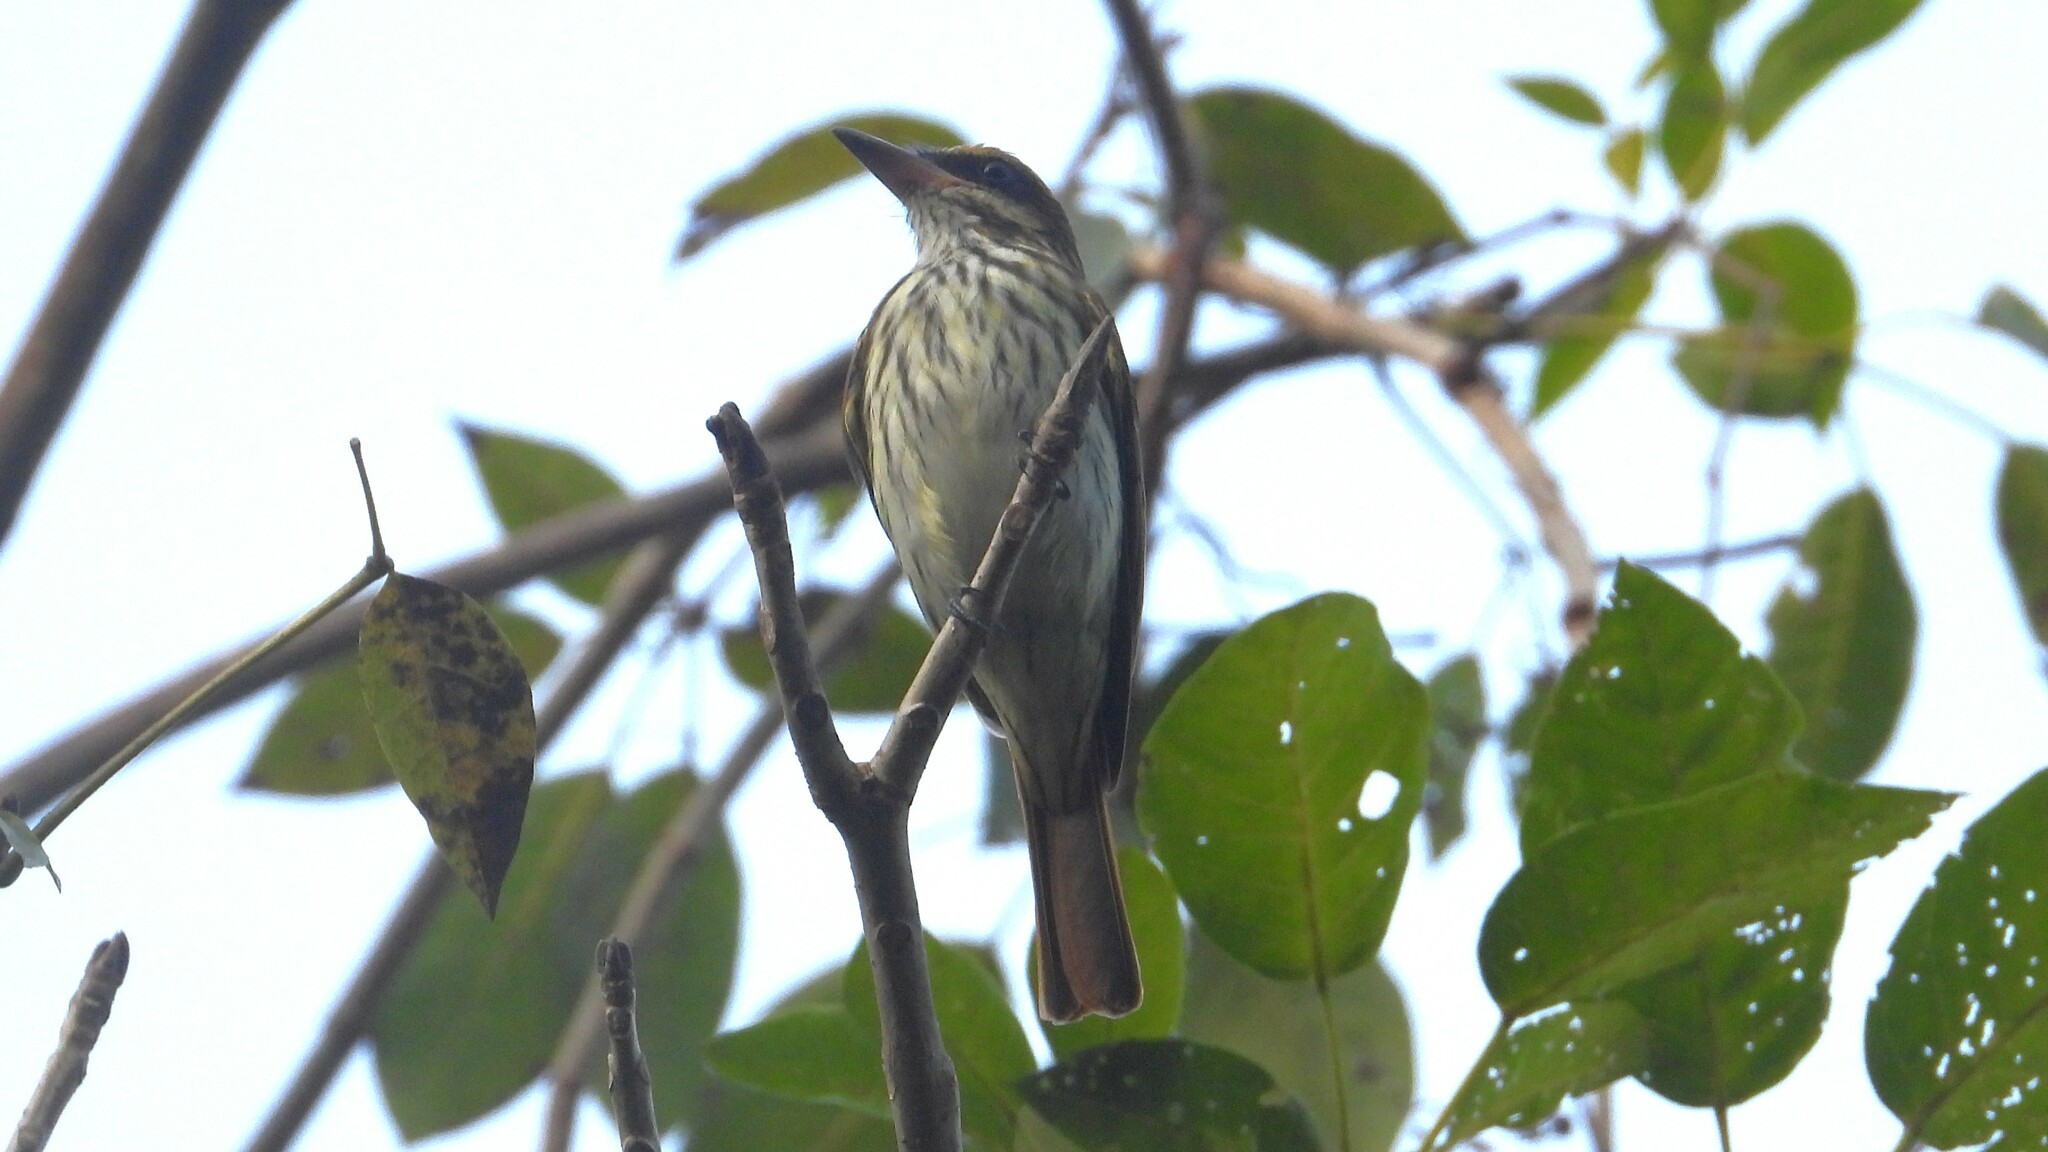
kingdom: Animalia
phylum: Chordata
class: Aves
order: Passeriformes
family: Tyrannidae
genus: Myiodynastes
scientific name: Myiodynastes maculatus
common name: Streaked flycatcher
